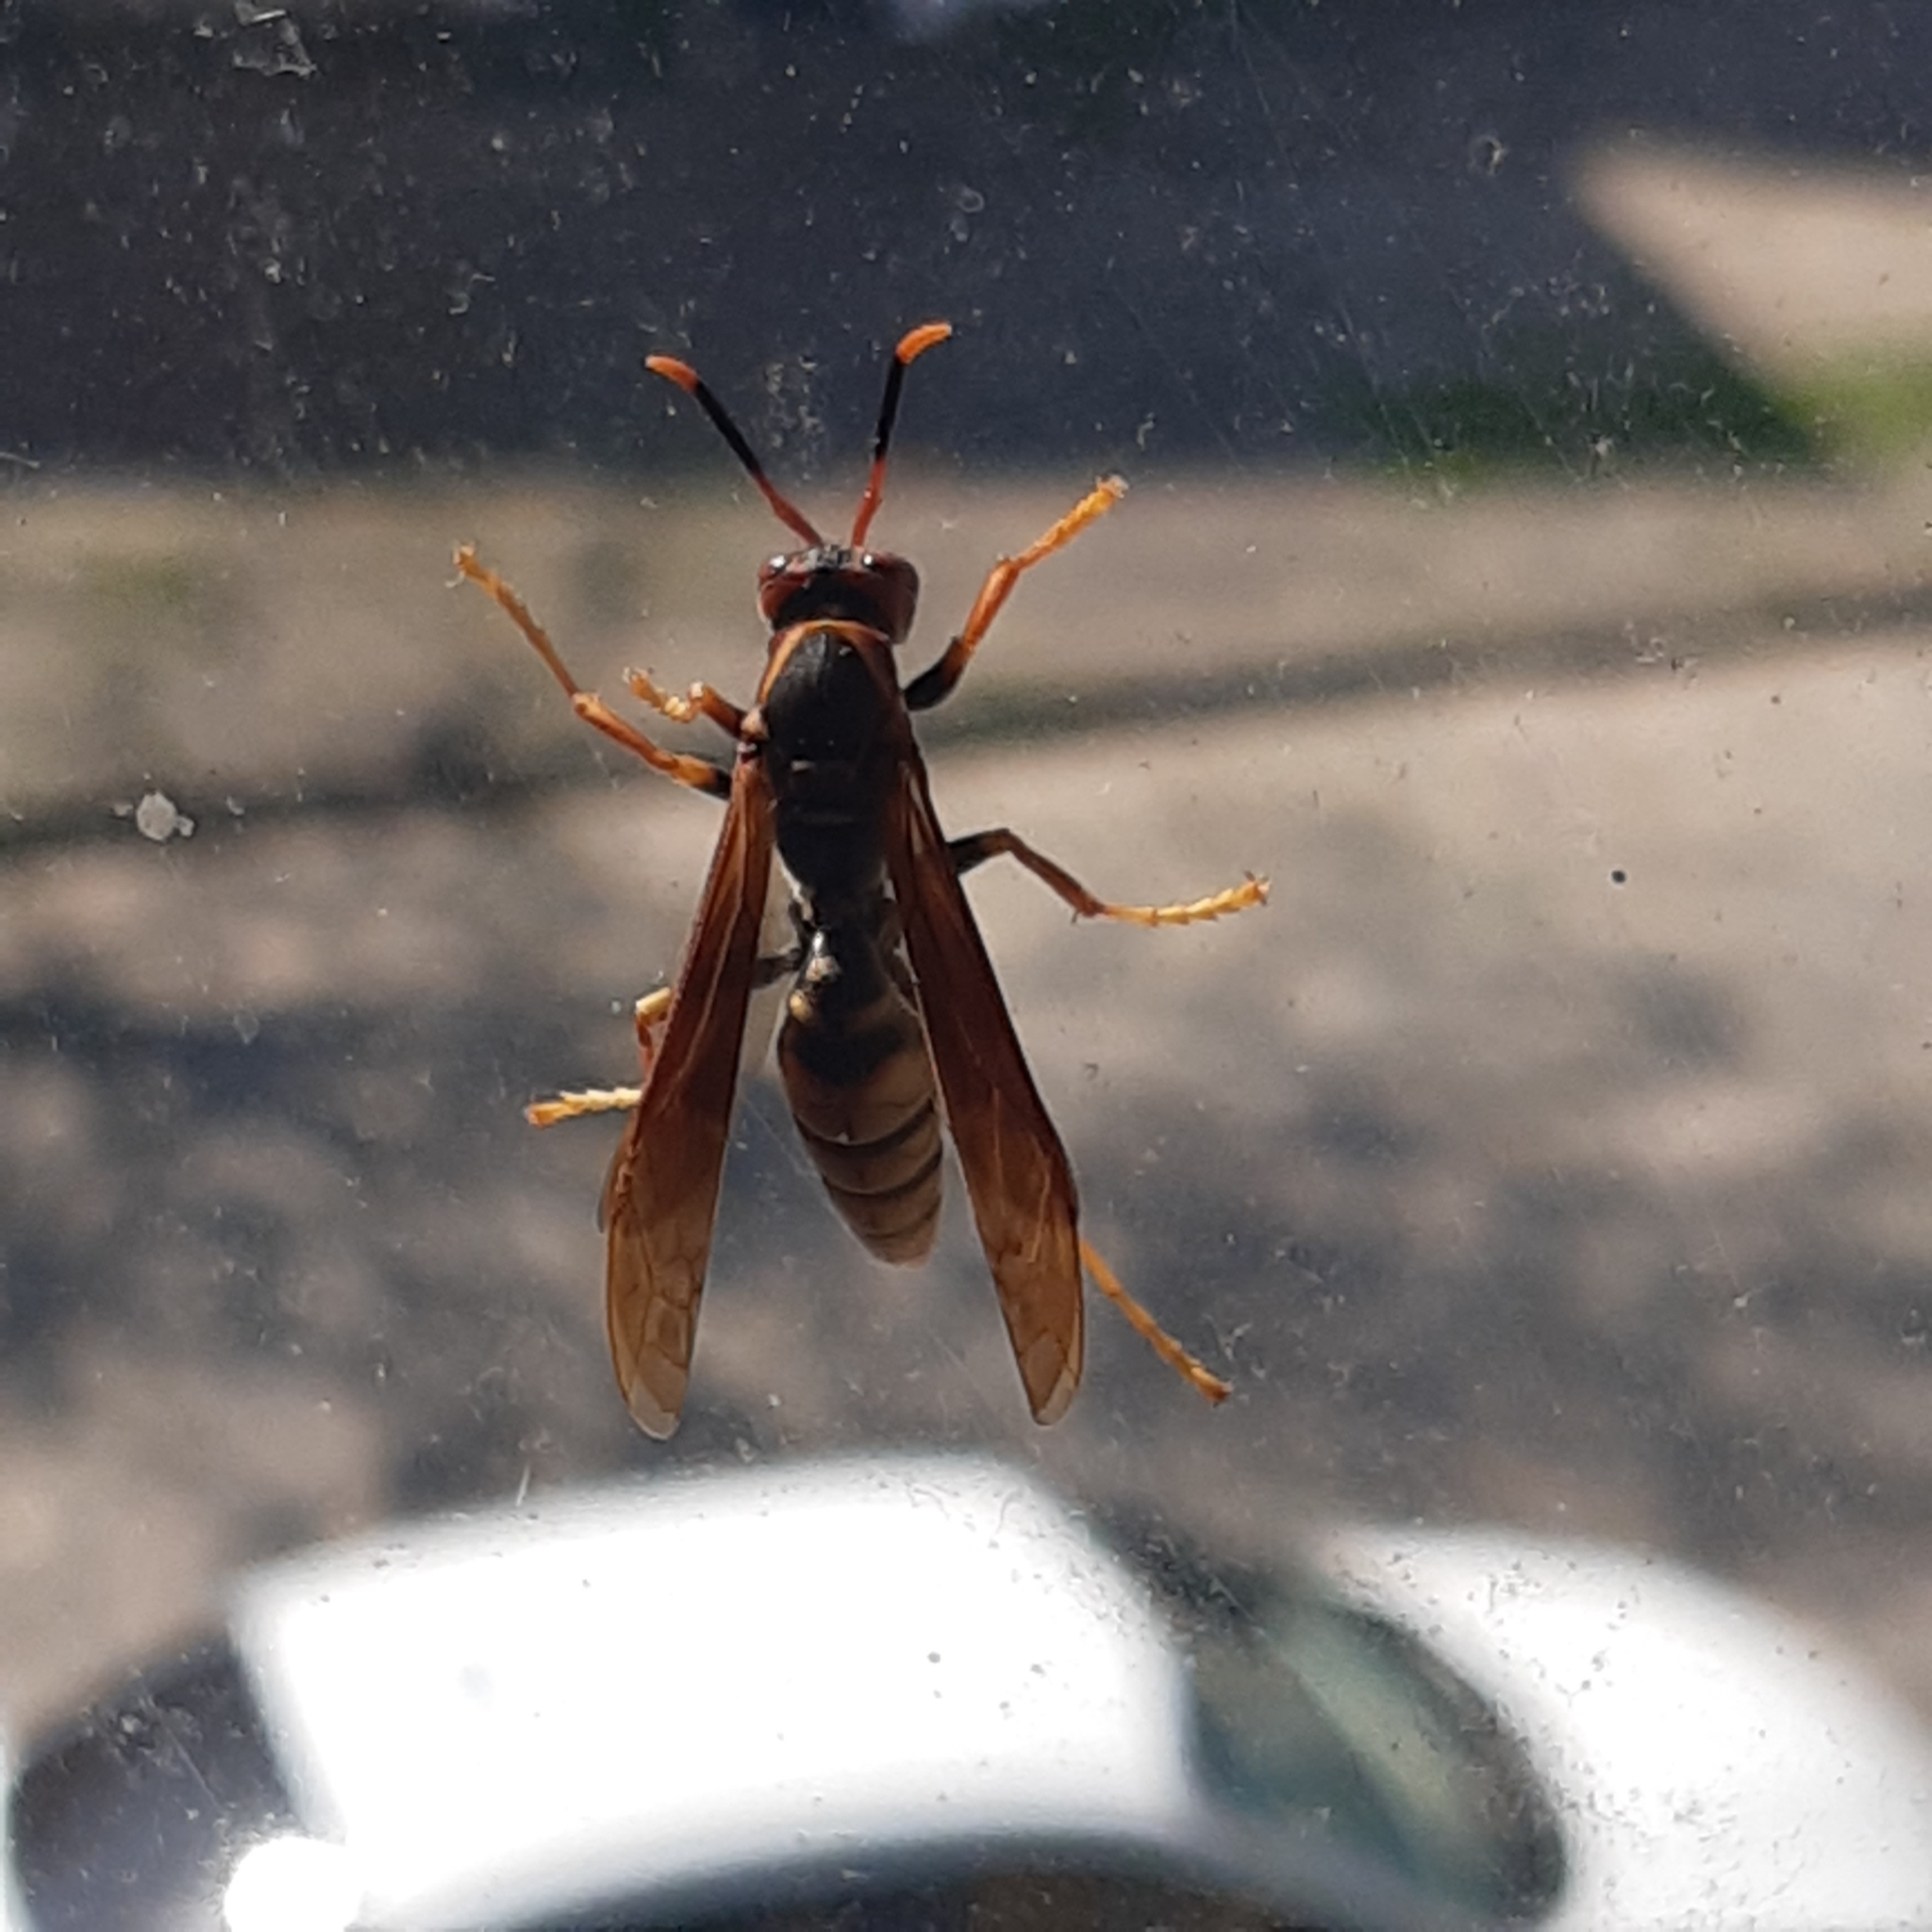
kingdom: Animalia
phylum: Arthropoda
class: Insecta
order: Hymenoptera
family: Eumenidae
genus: Polistes
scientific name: Polistes cavapytiformis
